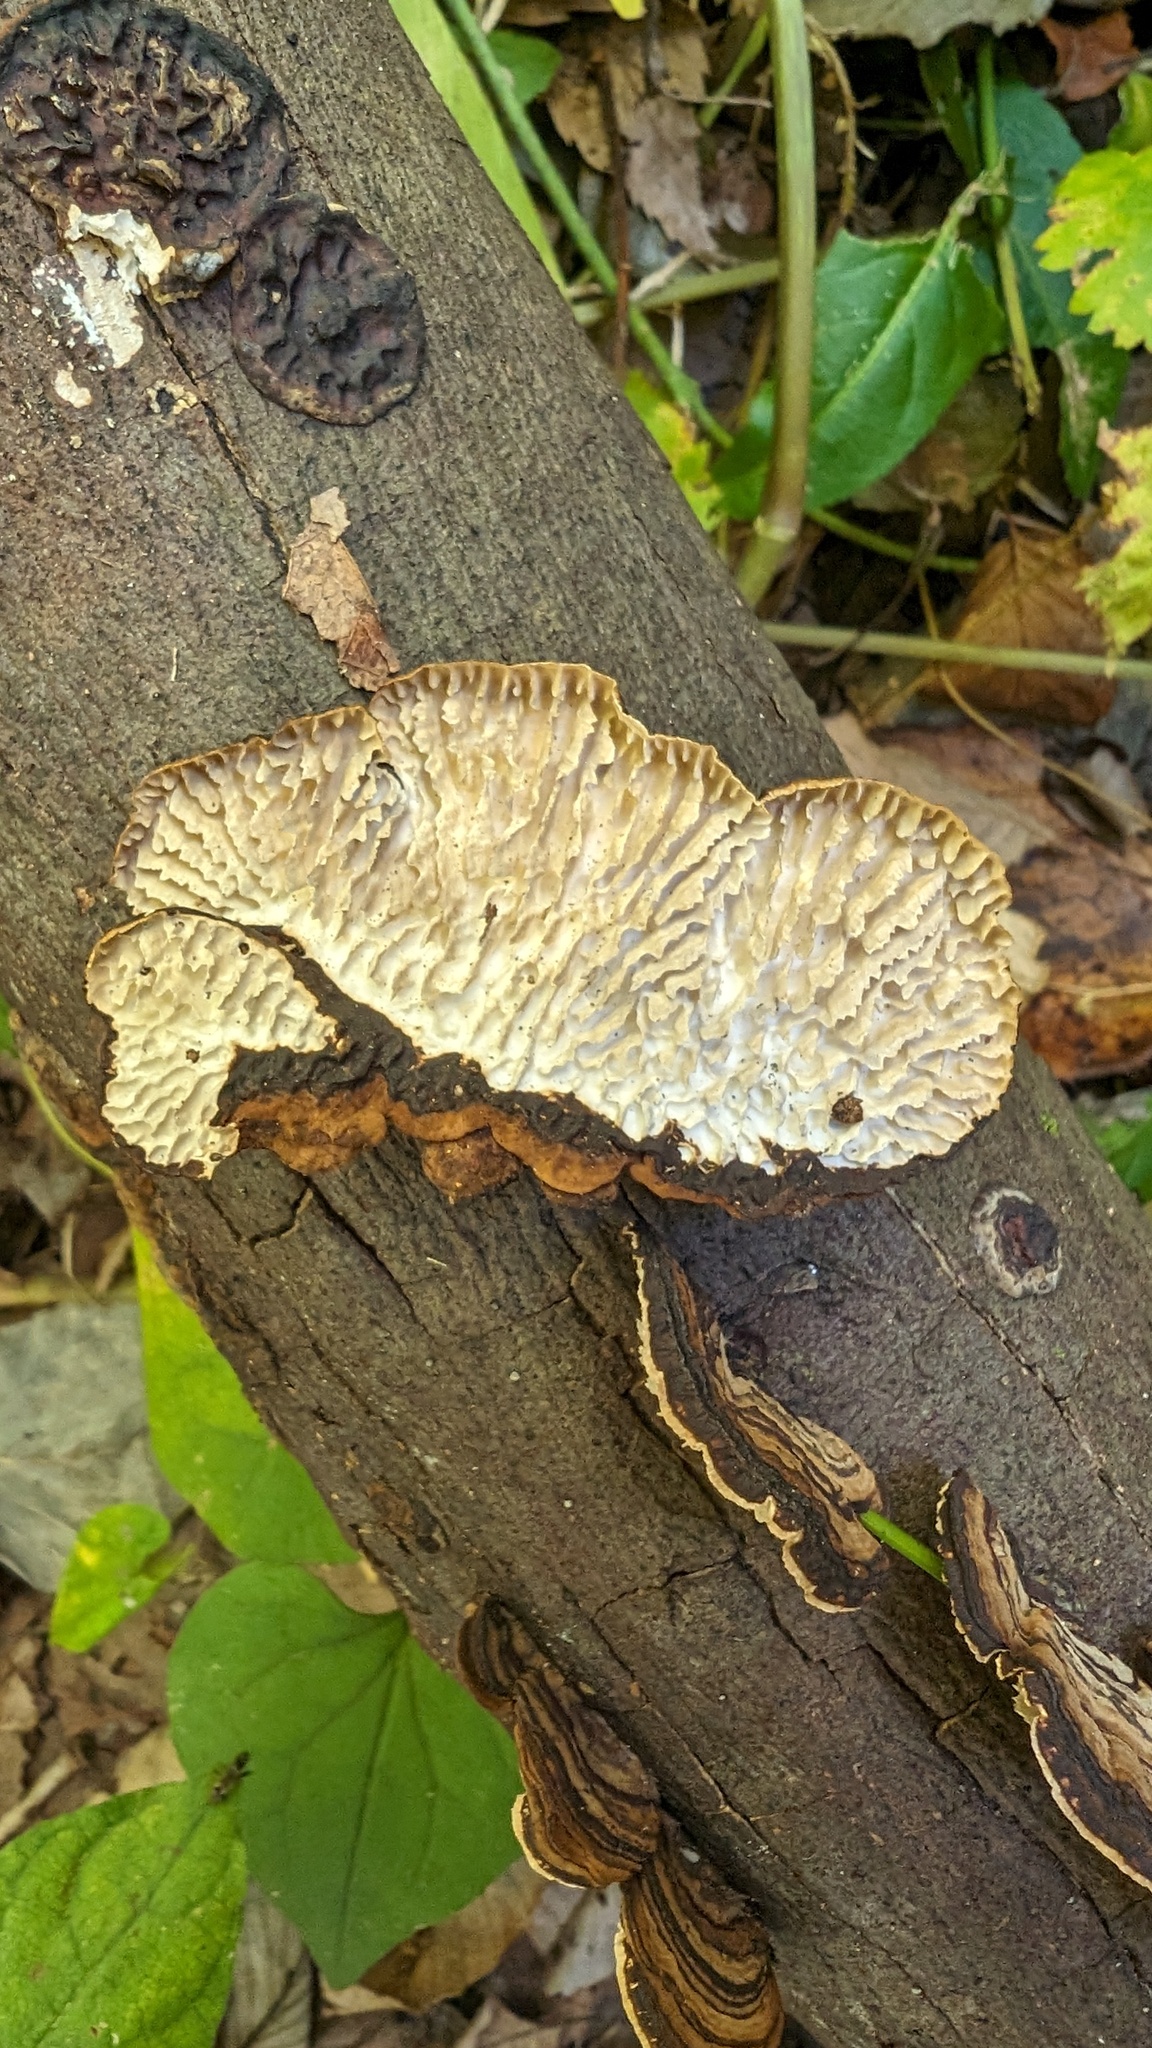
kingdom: Fungi
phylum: Basidiomycota
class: Agaricomycetes
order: Polyporales
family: Polyporaceae
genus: Lenzites
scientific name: Lenzites styracinus
